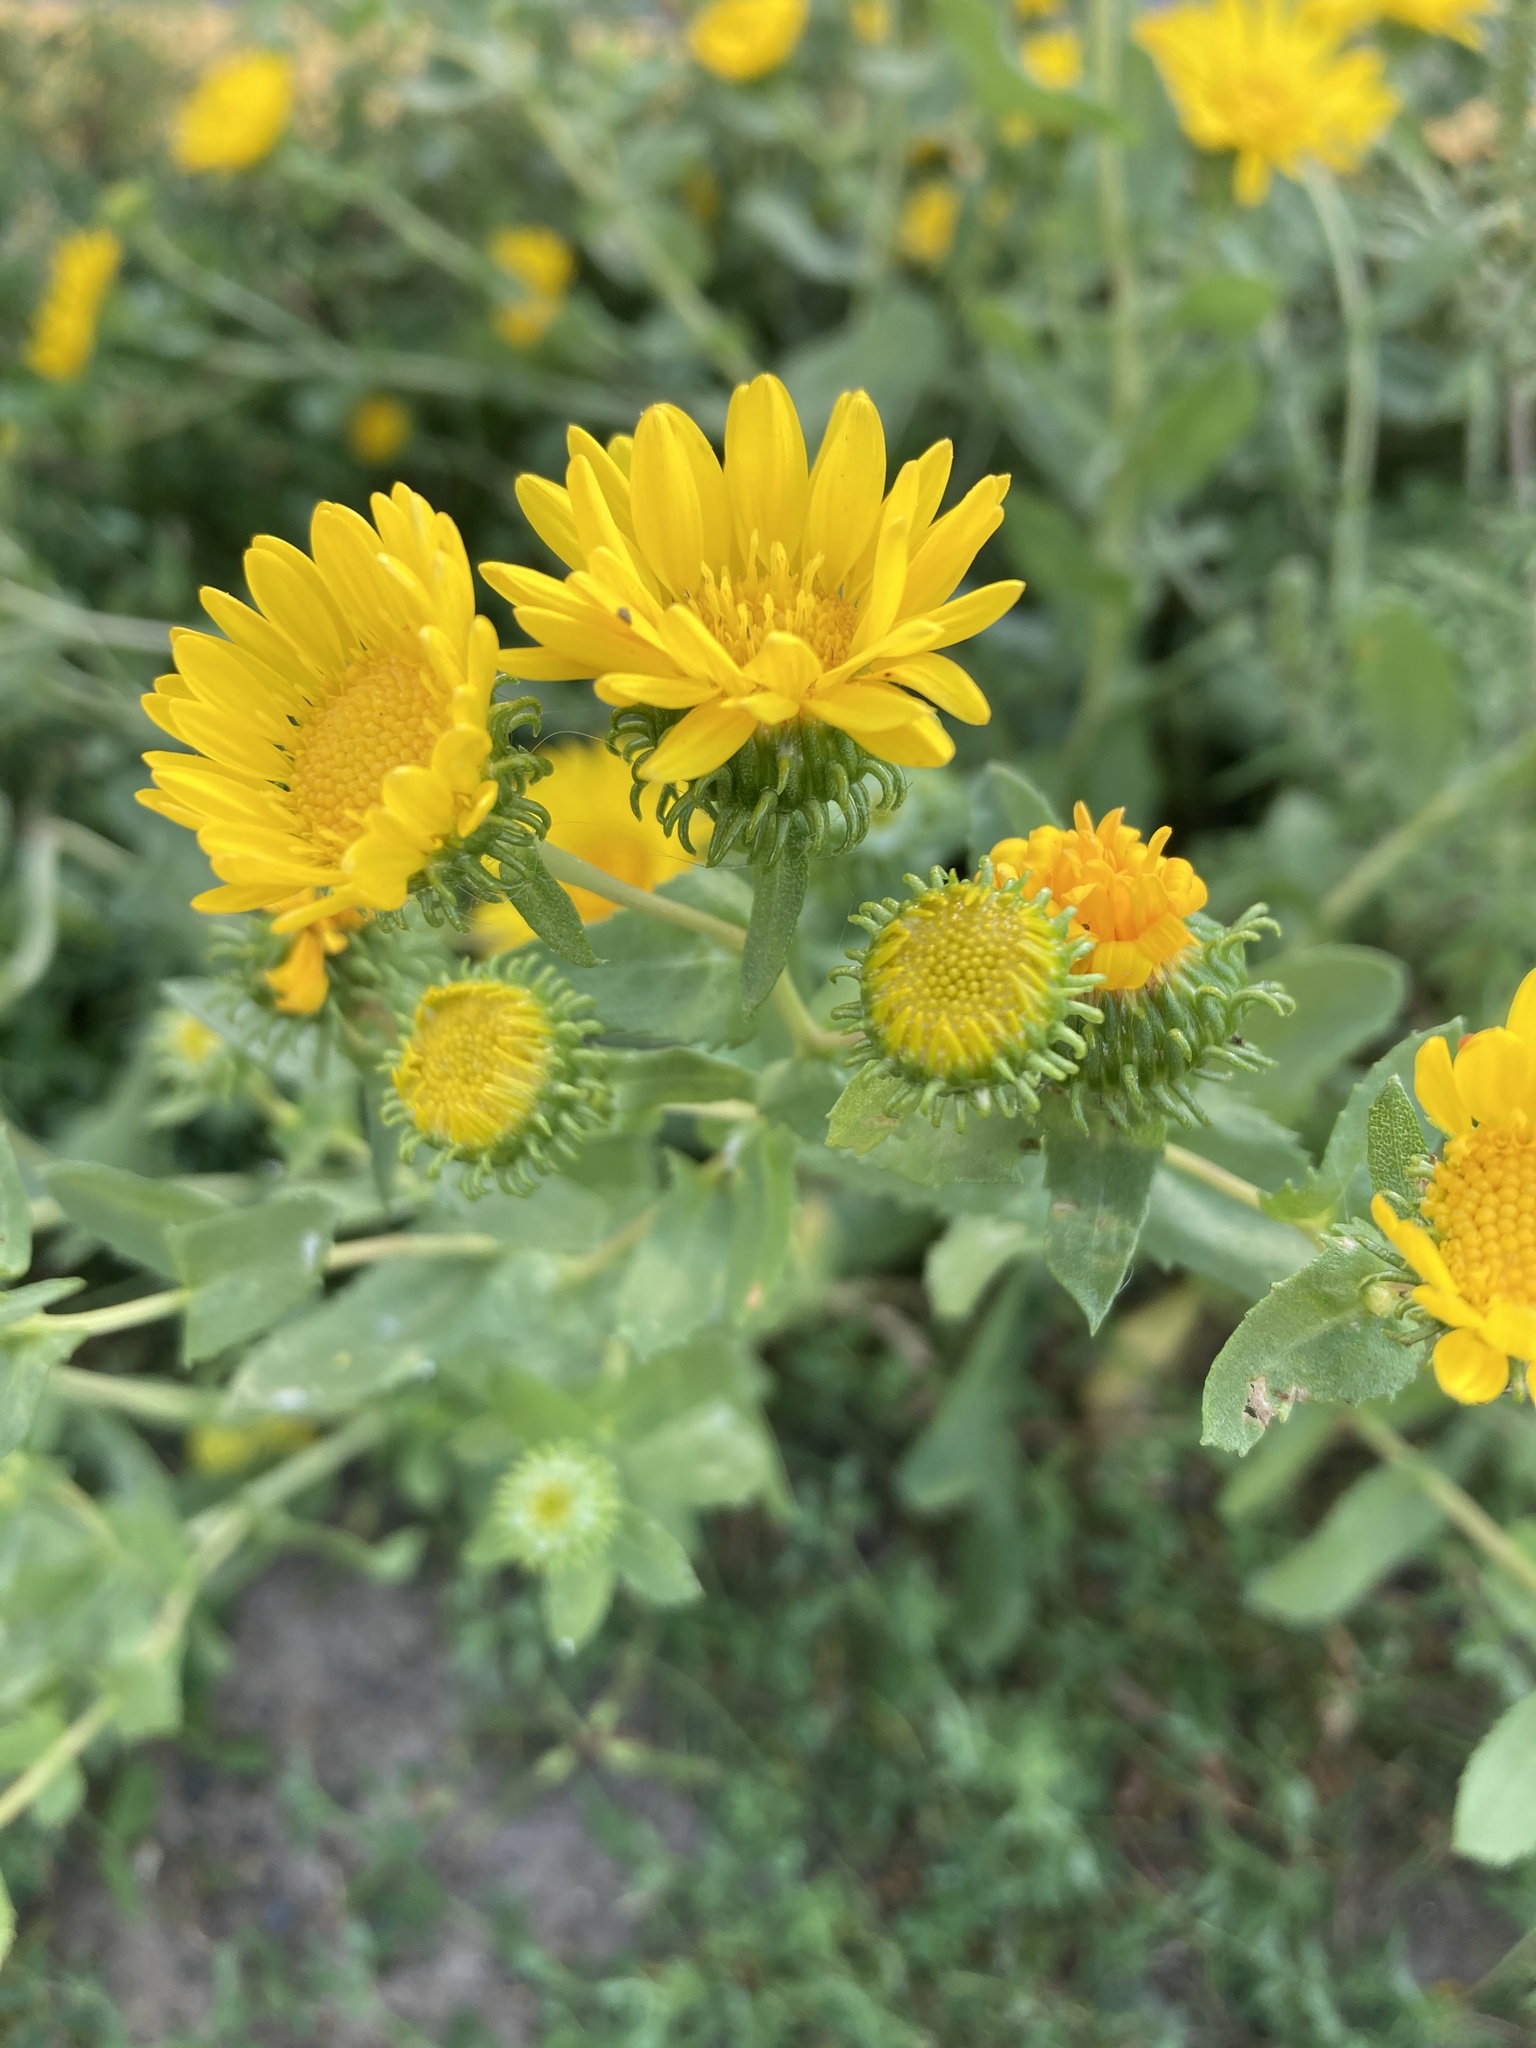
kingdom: Plantae
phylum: Tracheophyta
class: Magnoliopsida
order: Asterales
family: Asteraceae
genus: Grindelia
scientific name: Grindelia squarrosa
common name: Curly-cup gumweed
